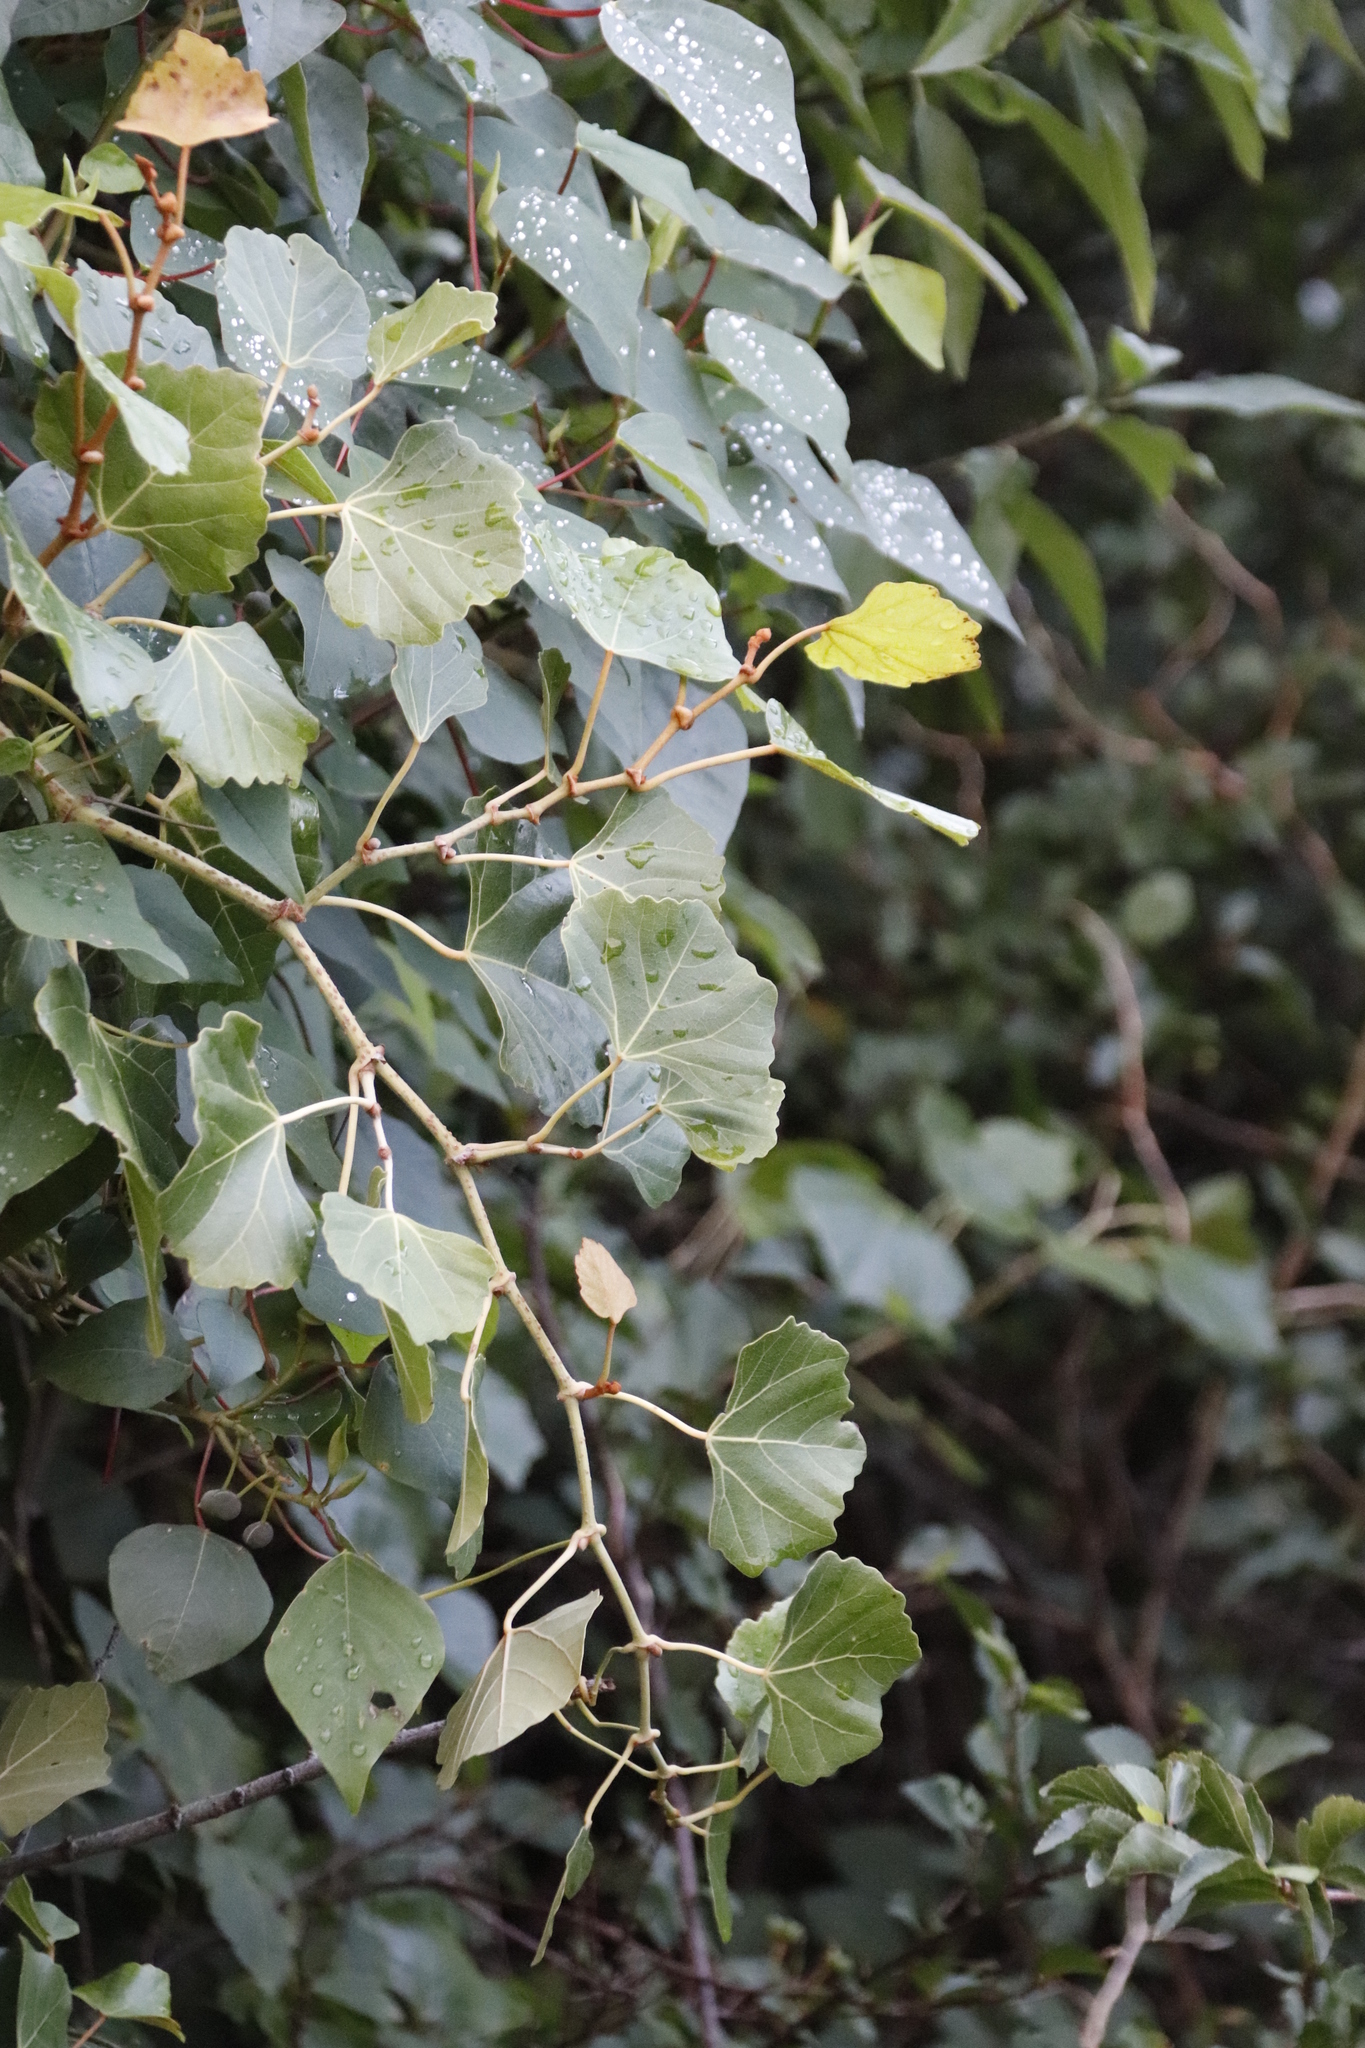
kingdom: Plantae
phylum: Tracheophyta
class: Magnoliopsida
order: Vitales
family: Vitaceae
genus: Rhoicissus
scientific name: Rhoicissus tomentosa
